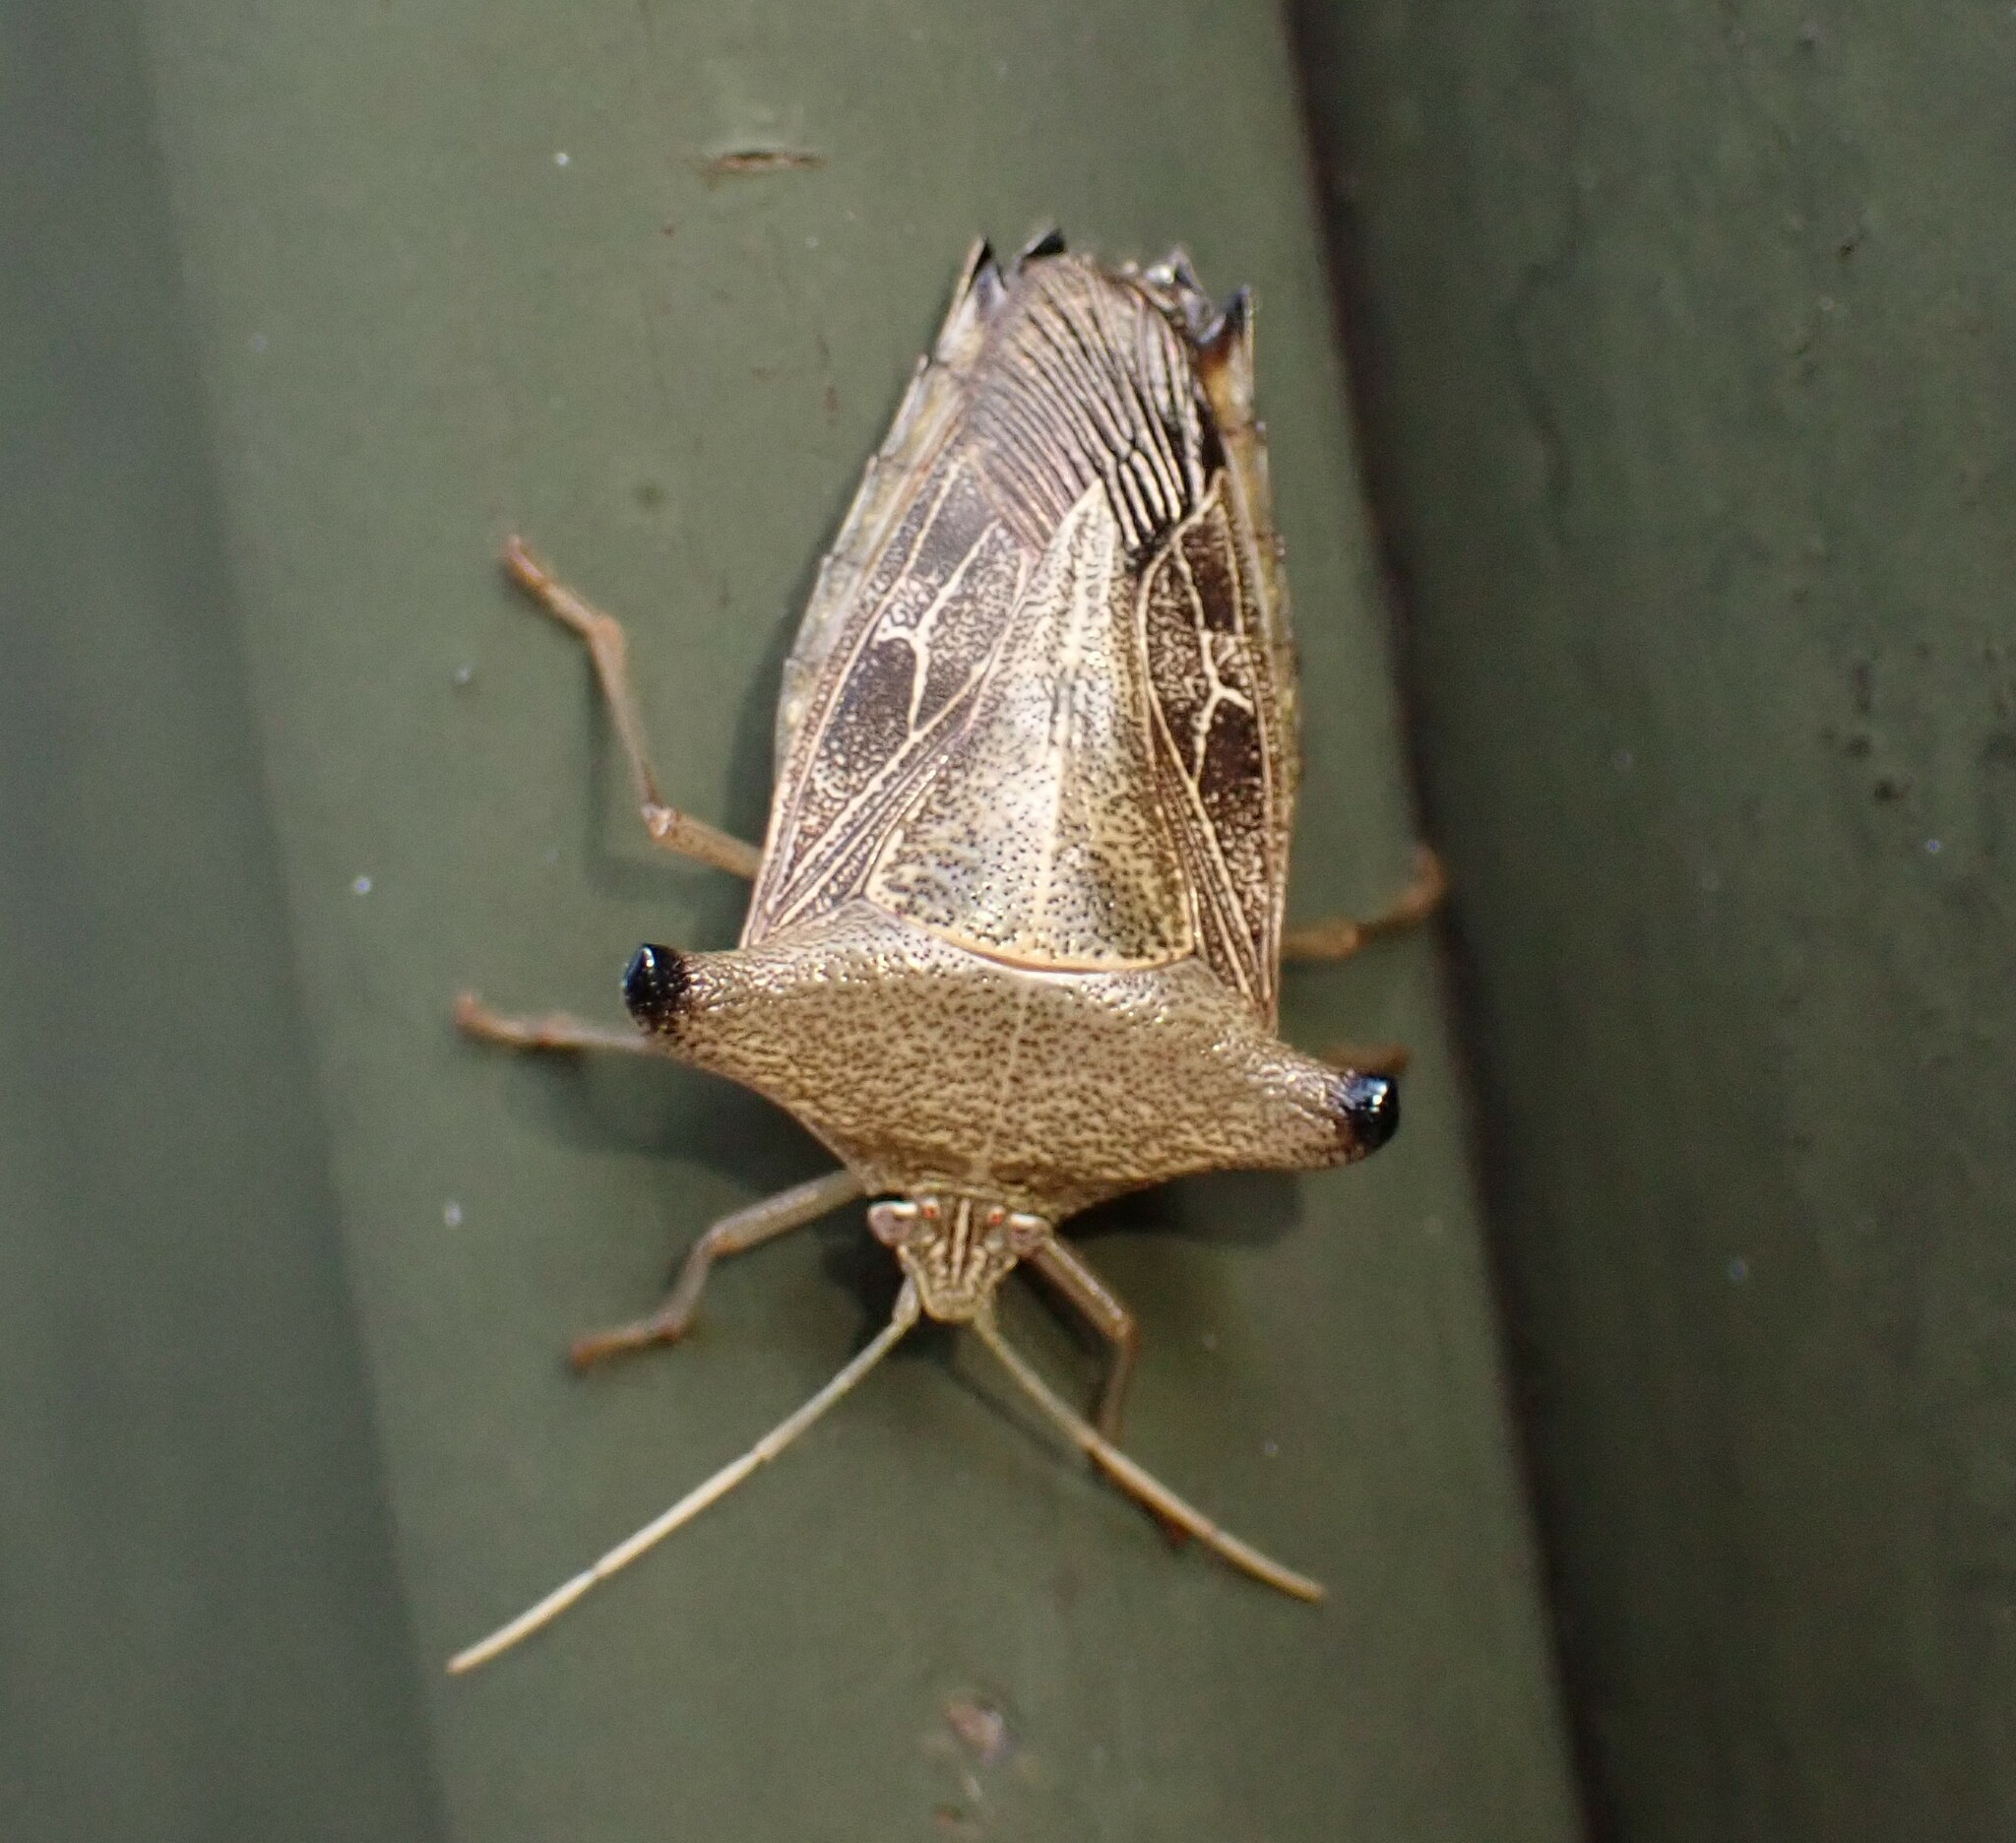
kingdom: Animalia
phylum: Arthropoda
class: Insecta
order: Hemiptera
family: Pentatomidae
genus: Edessa
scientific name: Edessa
